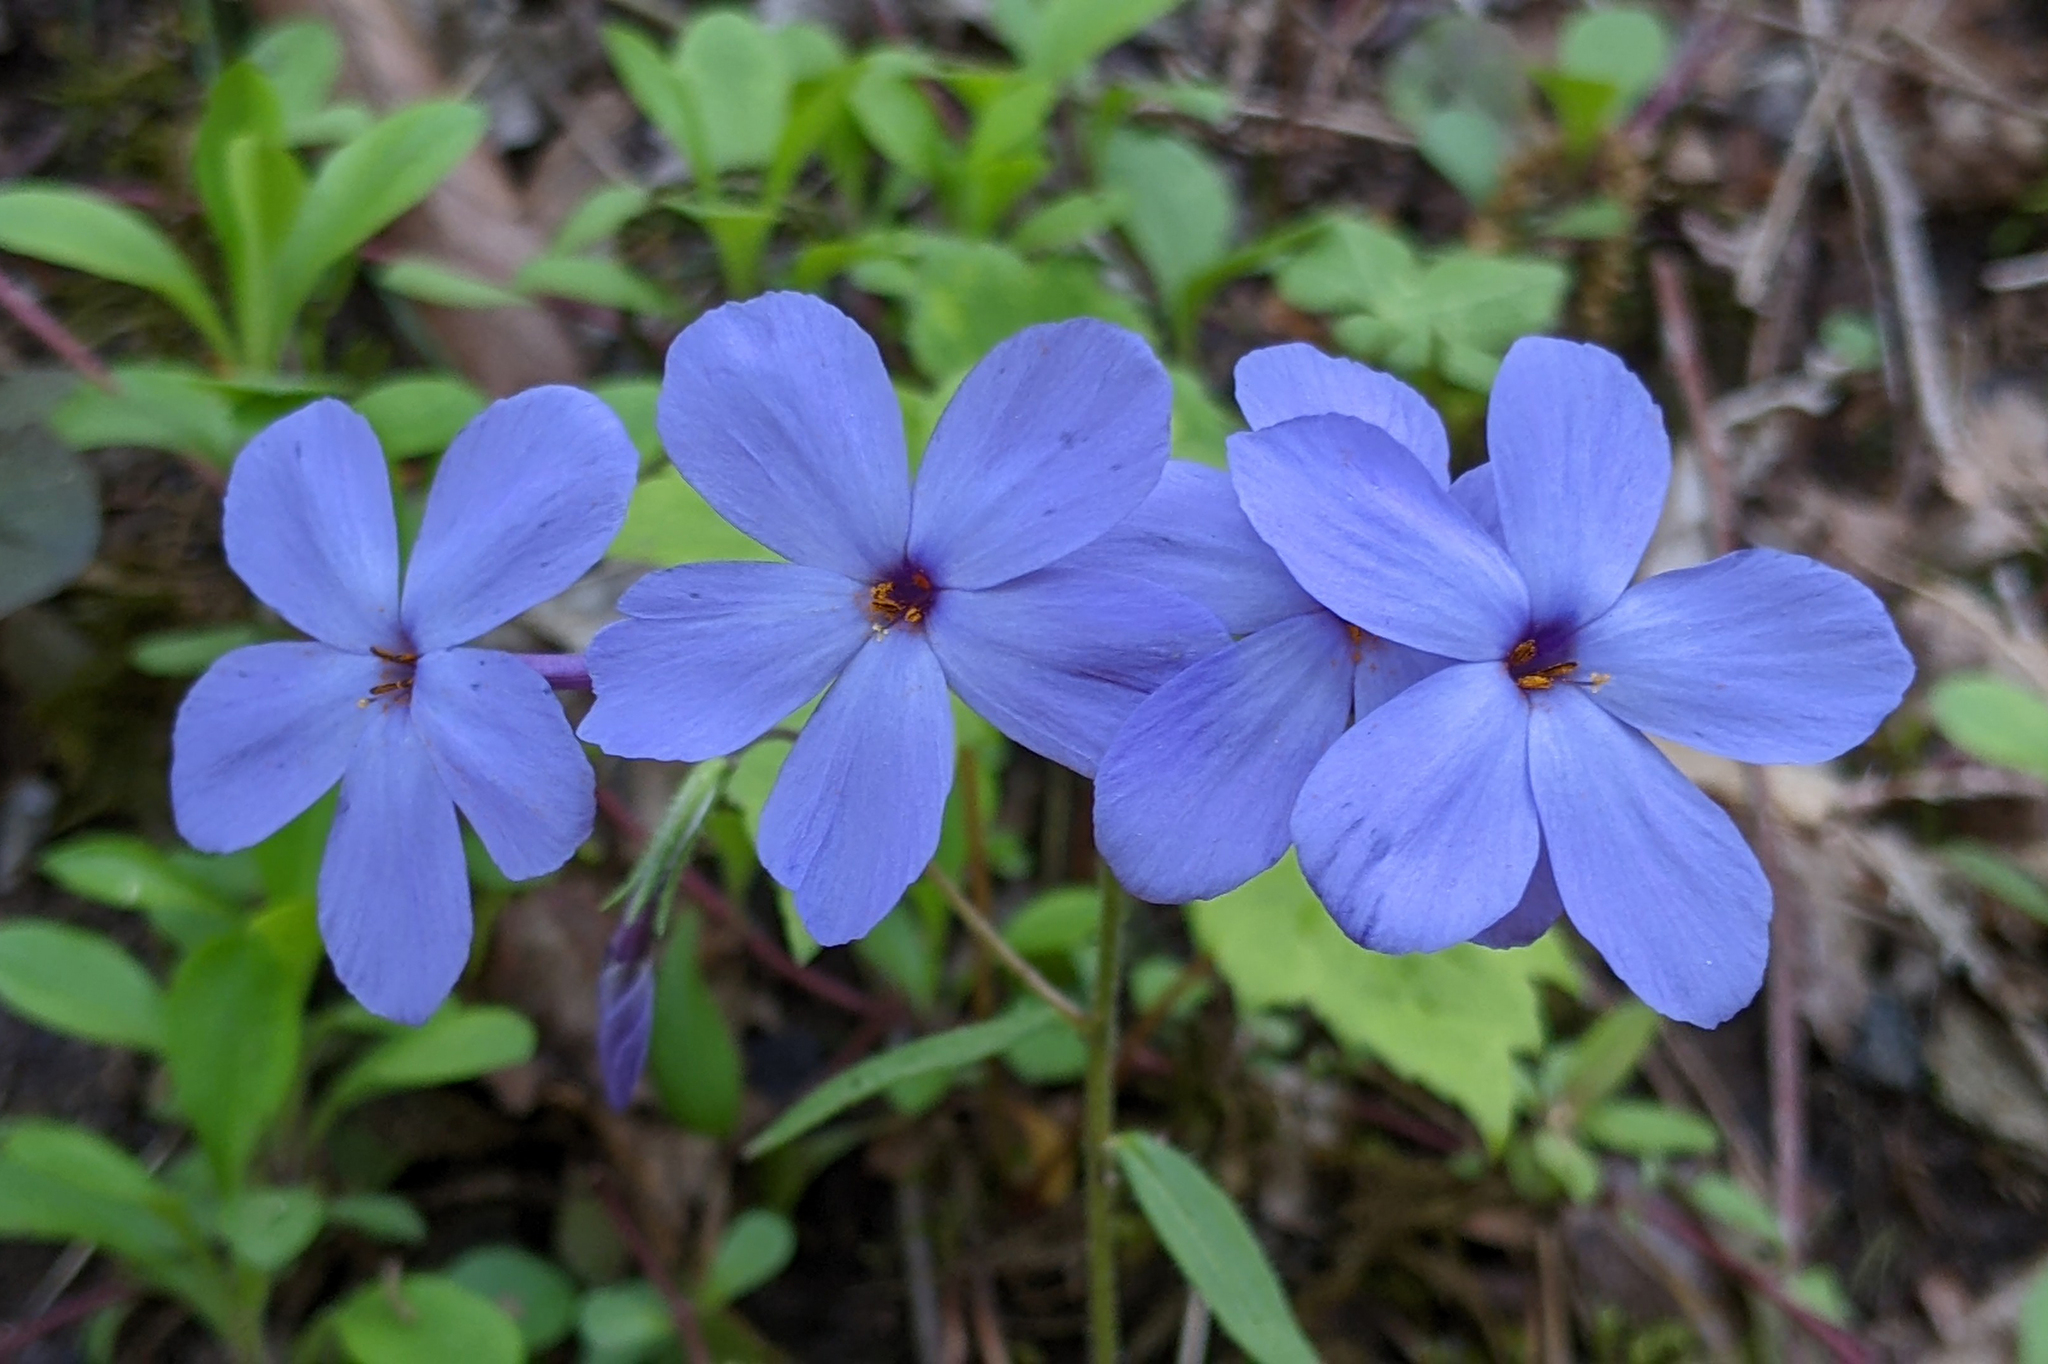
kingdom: Plantae
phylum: Tracheophyta
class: Magnoliopsida
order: Ericales
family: Polemoniaceae
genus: Phlox
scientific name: Phlox stolonifera
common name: Creeping phlox
